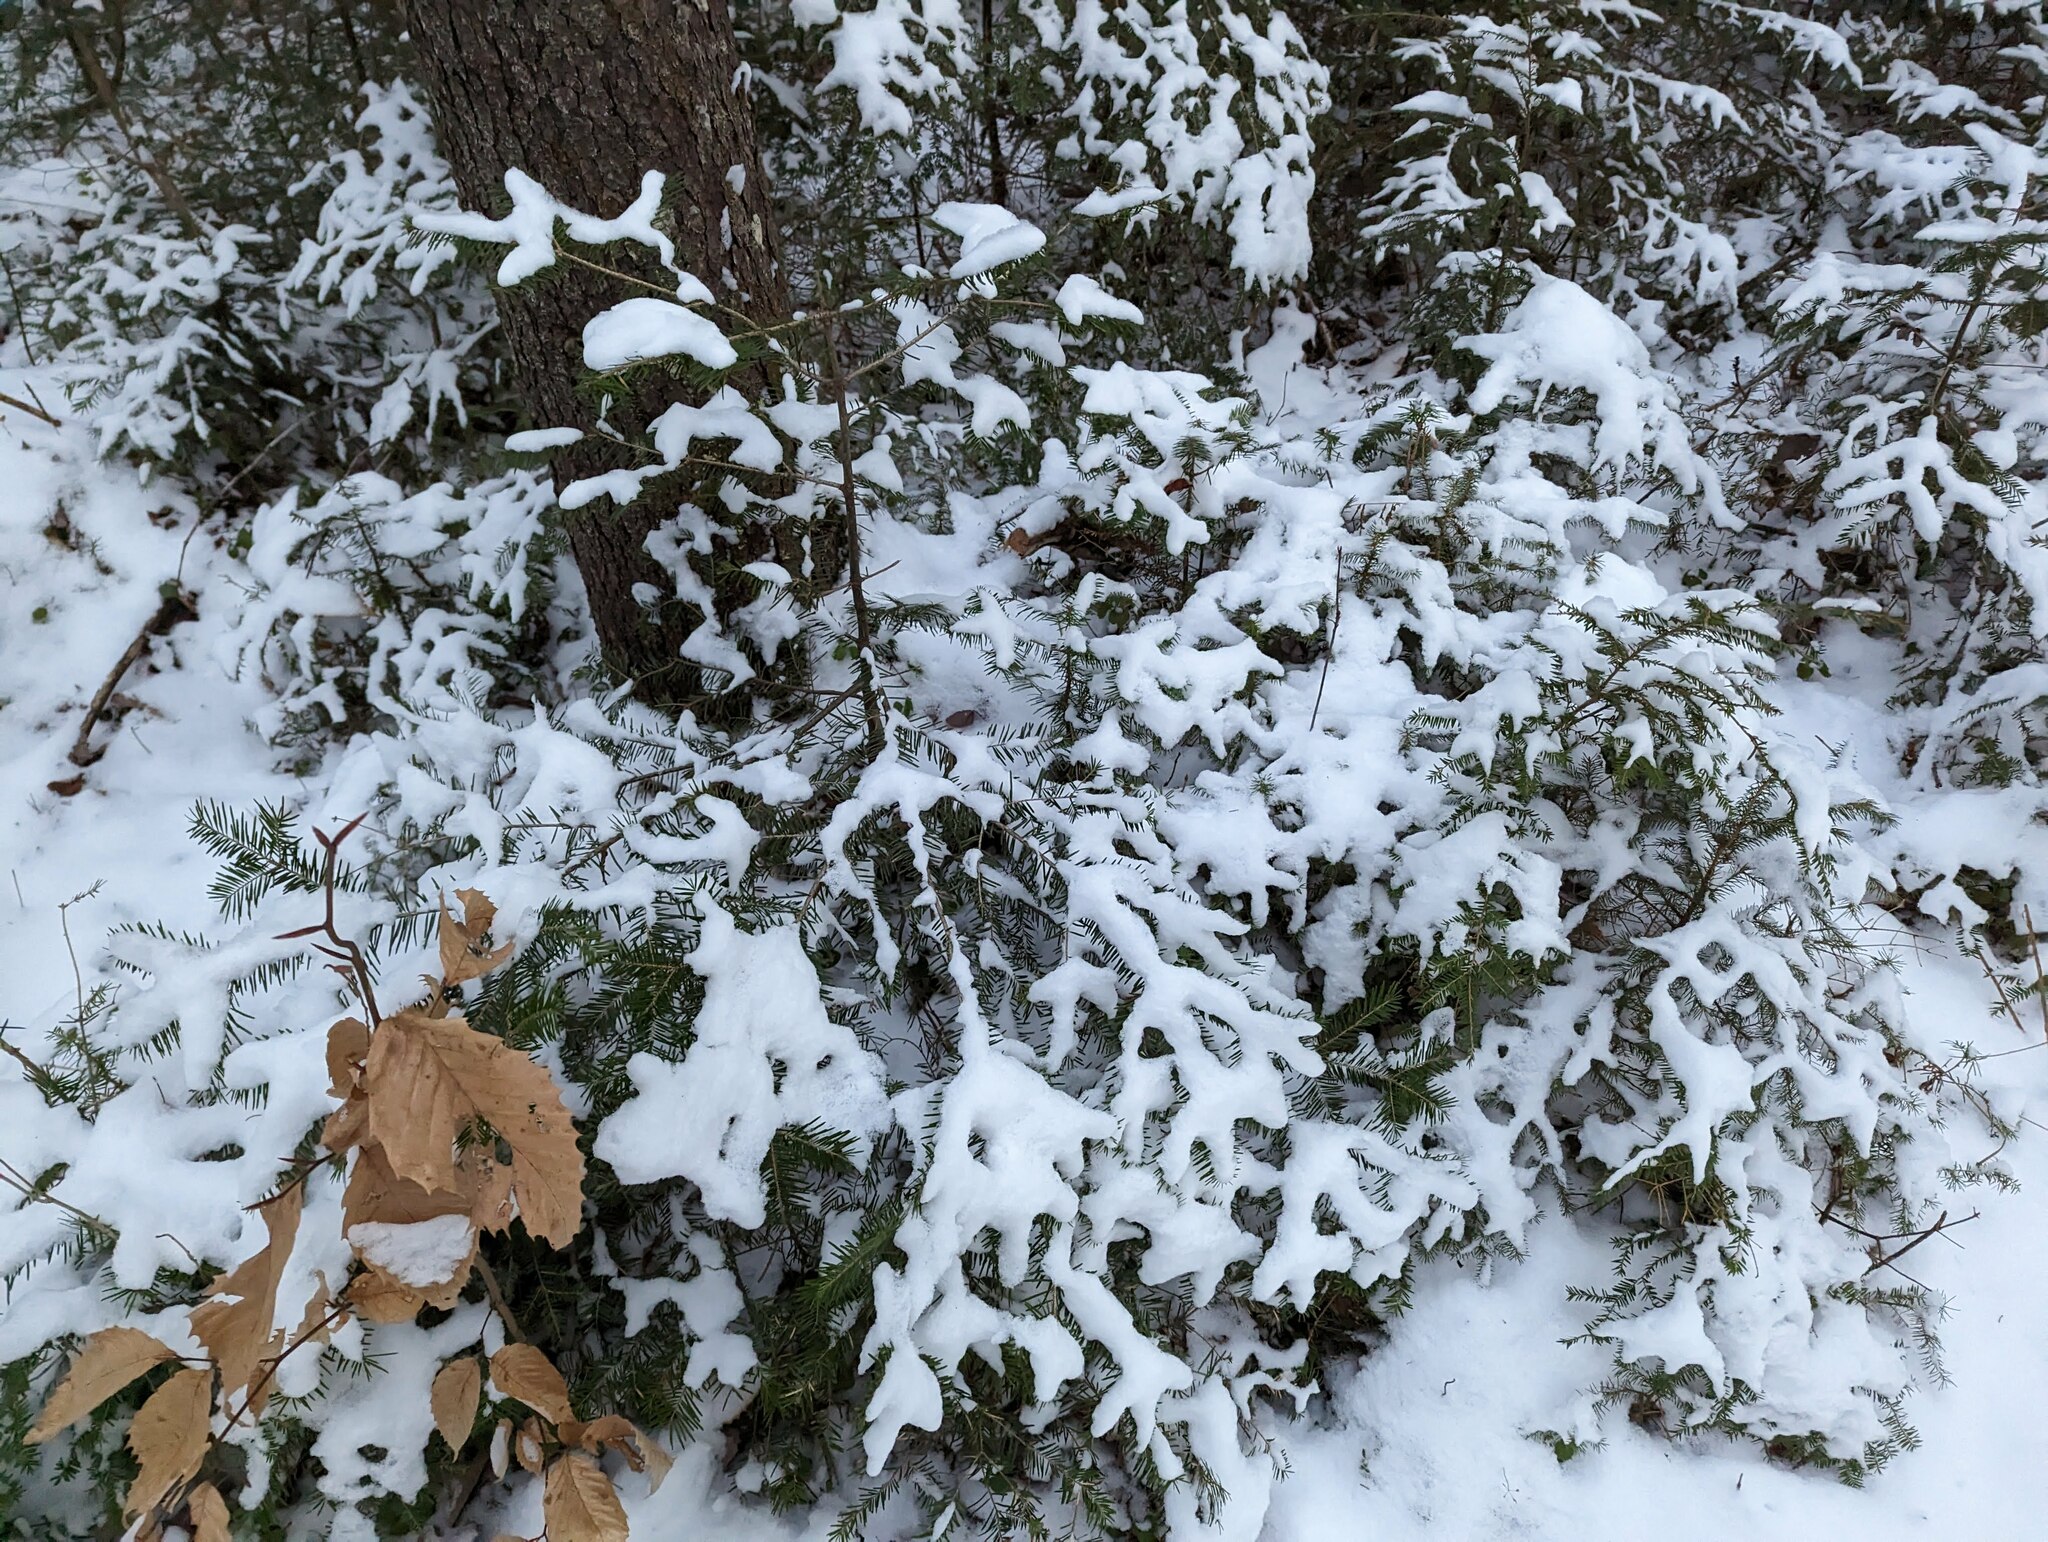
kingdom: Plantae
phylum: Tracheophyta
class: Pinopsida
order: Pinales
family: Pinaceae
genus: Abies
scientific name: Abies balsamea
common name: Balsam fir
